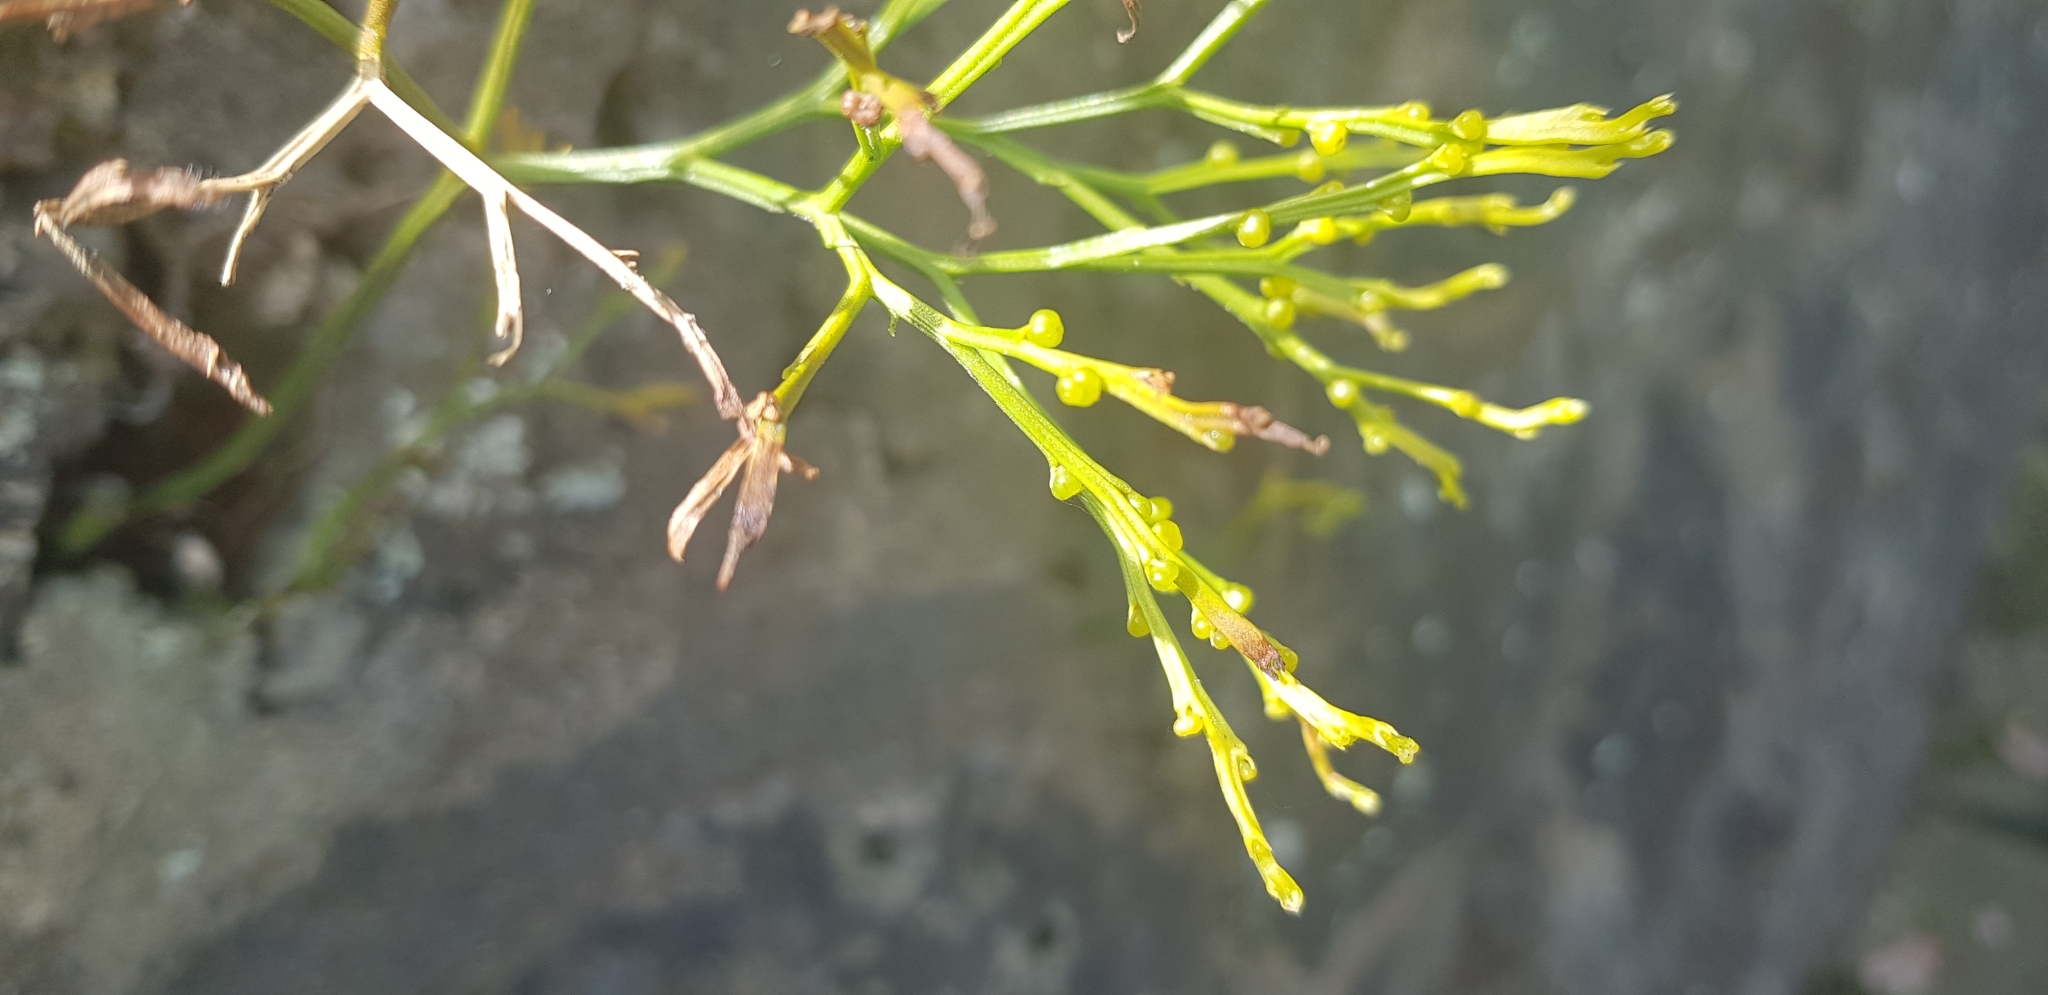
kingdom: Plantae
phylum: Tracheophyta
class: Polypodiopsida
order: Psilotales
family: Psilotaceae
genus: Psilotum
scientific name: Psilotum nudum
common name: Skeleton fork fern
